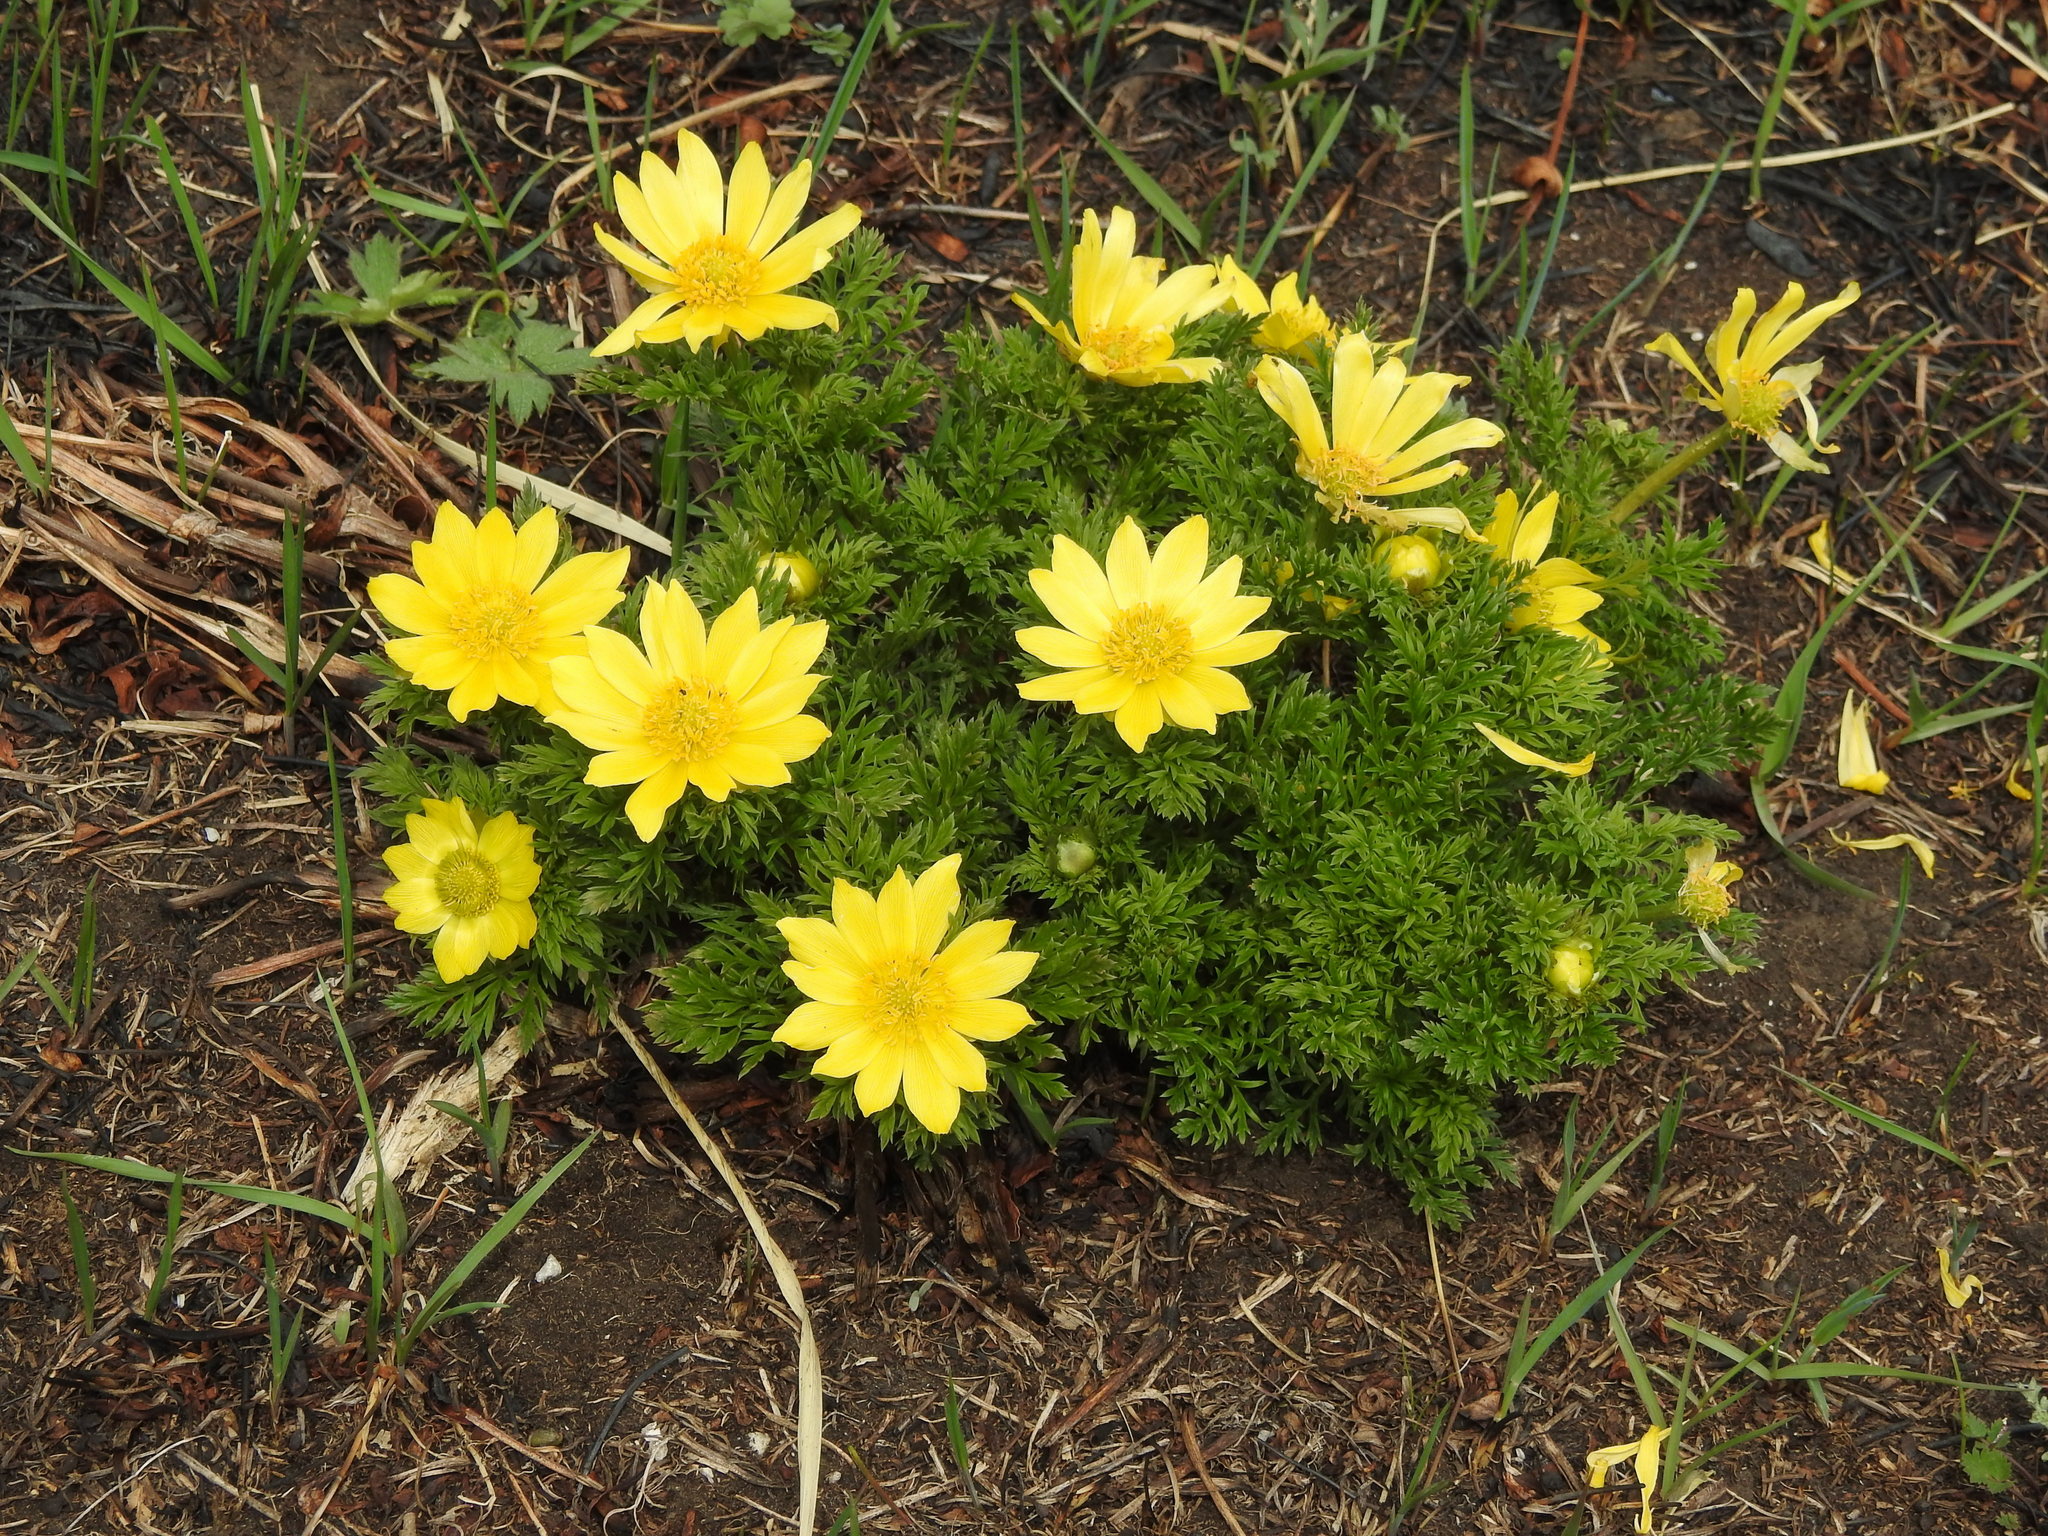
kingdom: Plantae
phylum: Tracheophyta
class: Magnoliopsida
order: Ranunculales
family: Ranunculaceae
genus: Adonis
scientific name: Adonis
